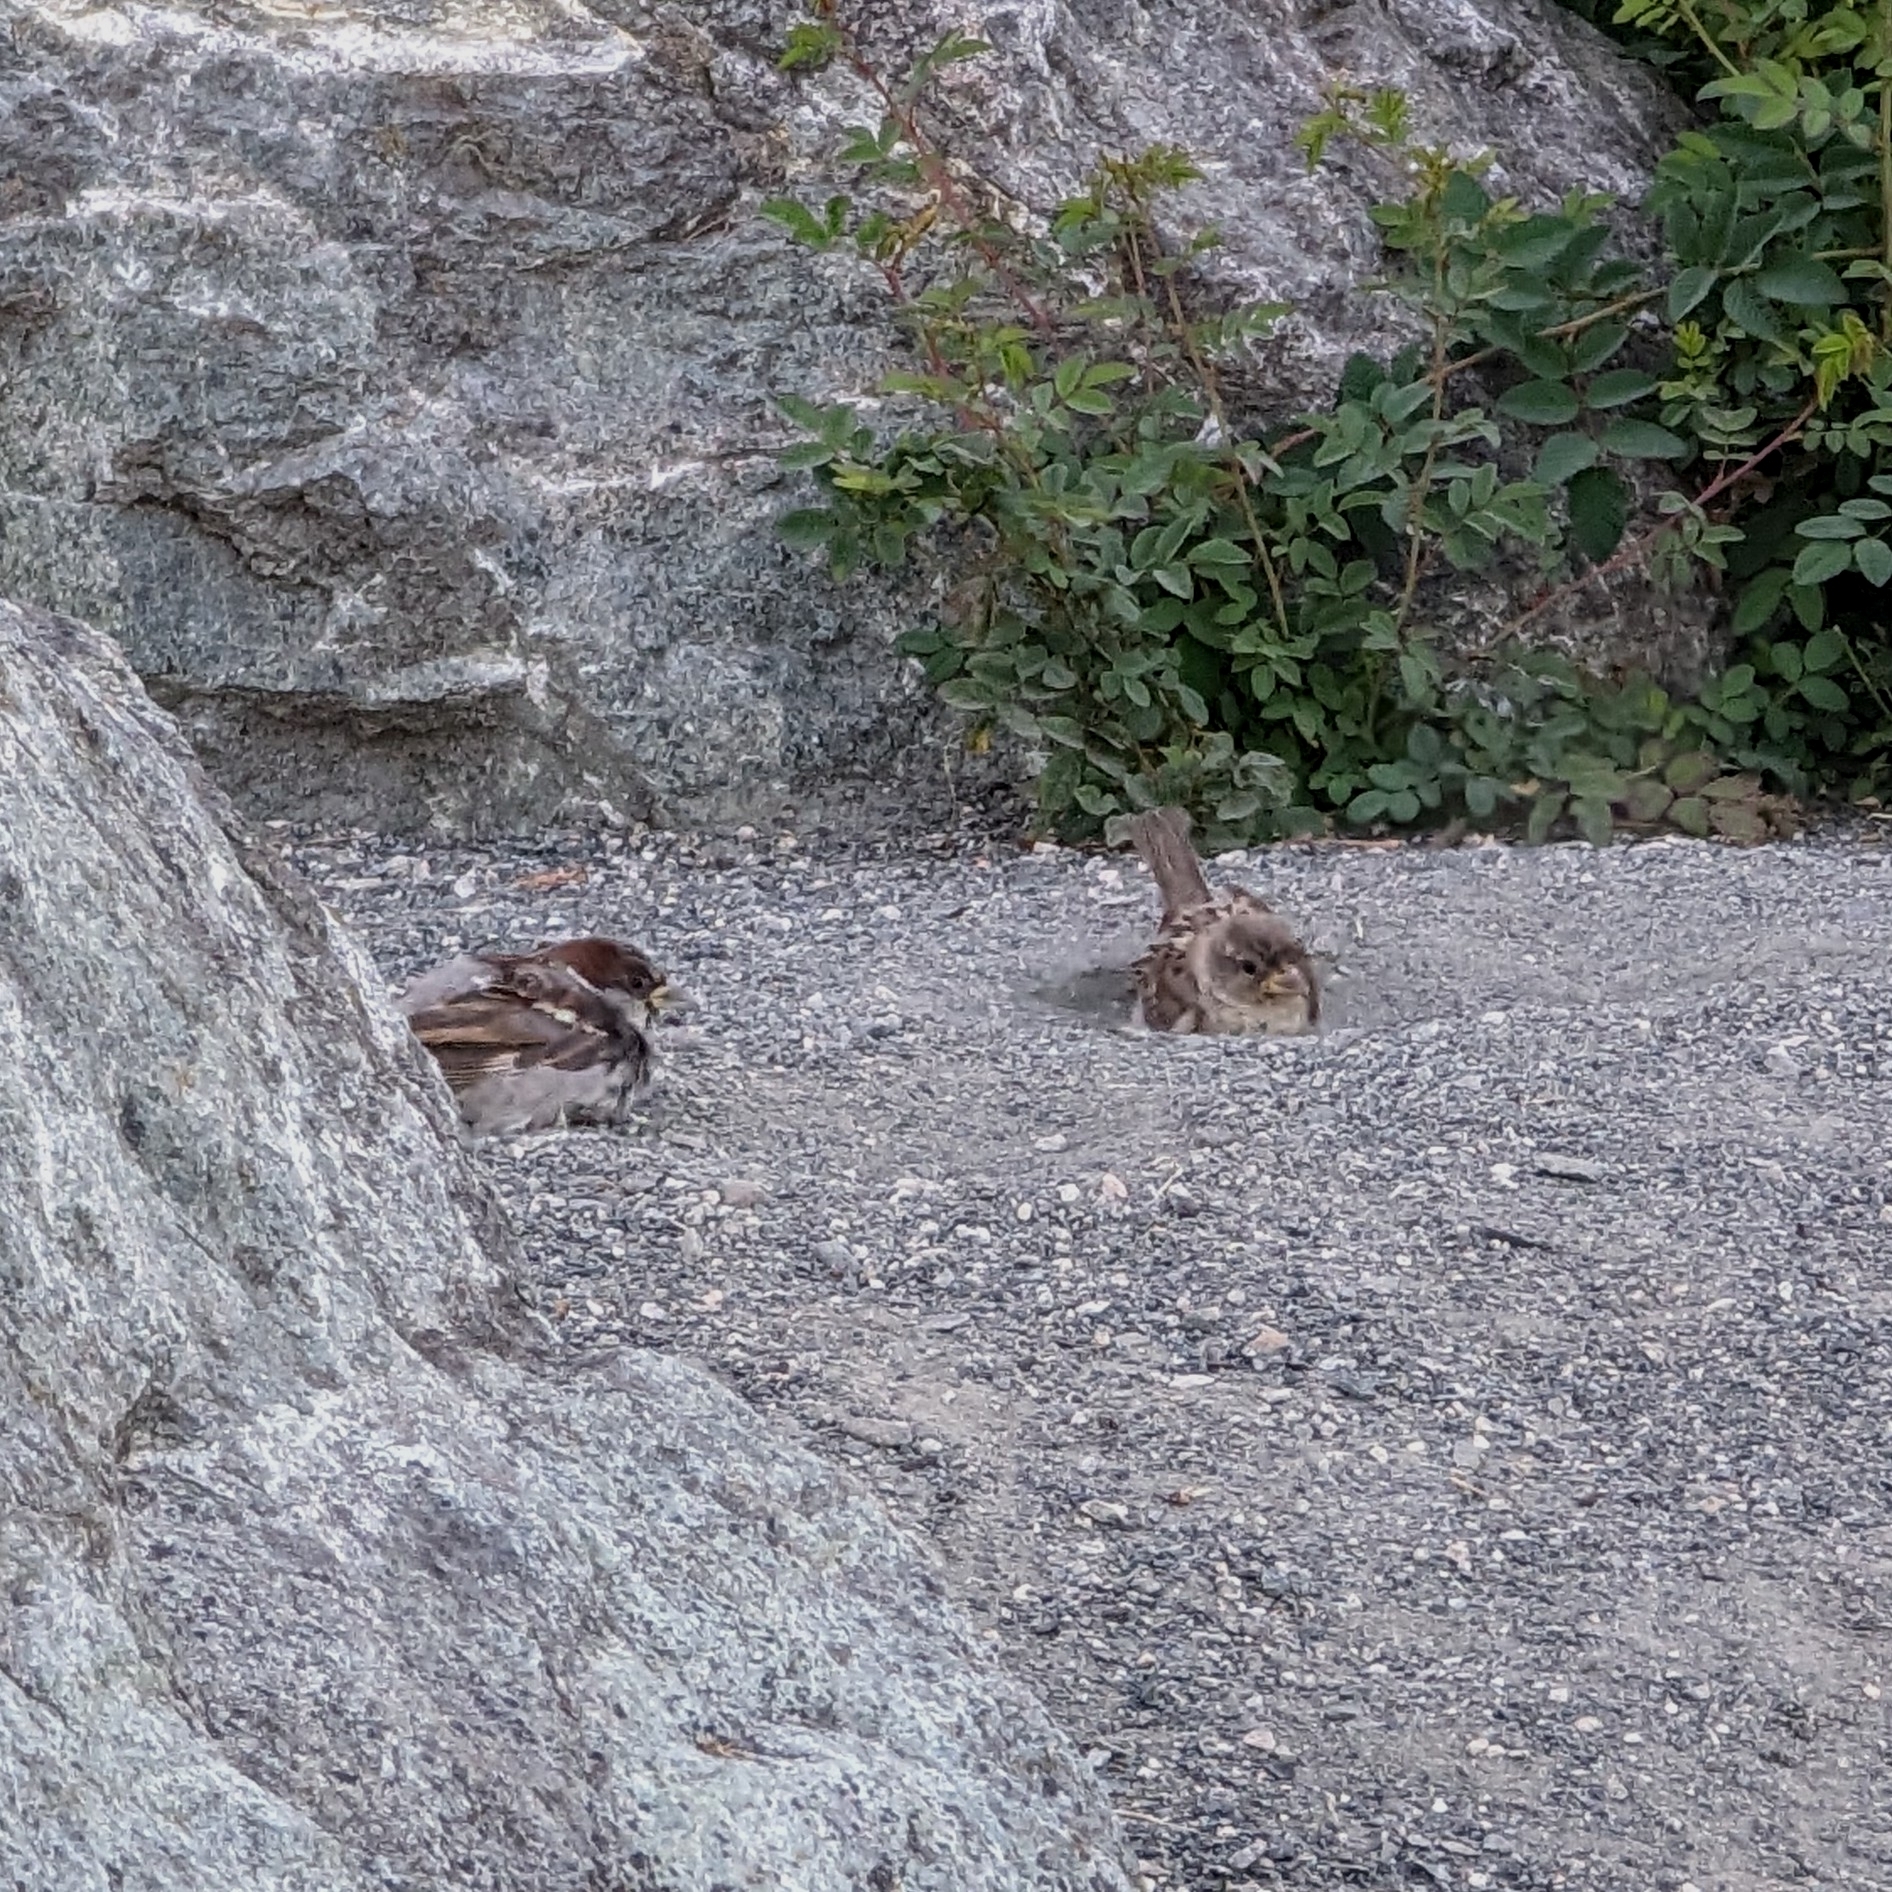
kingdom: Animalia
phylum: Chordata
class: Aves
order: Passeriformes
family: Passeridae
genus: Passer
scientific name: Passer domesticus
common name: House sparrow
